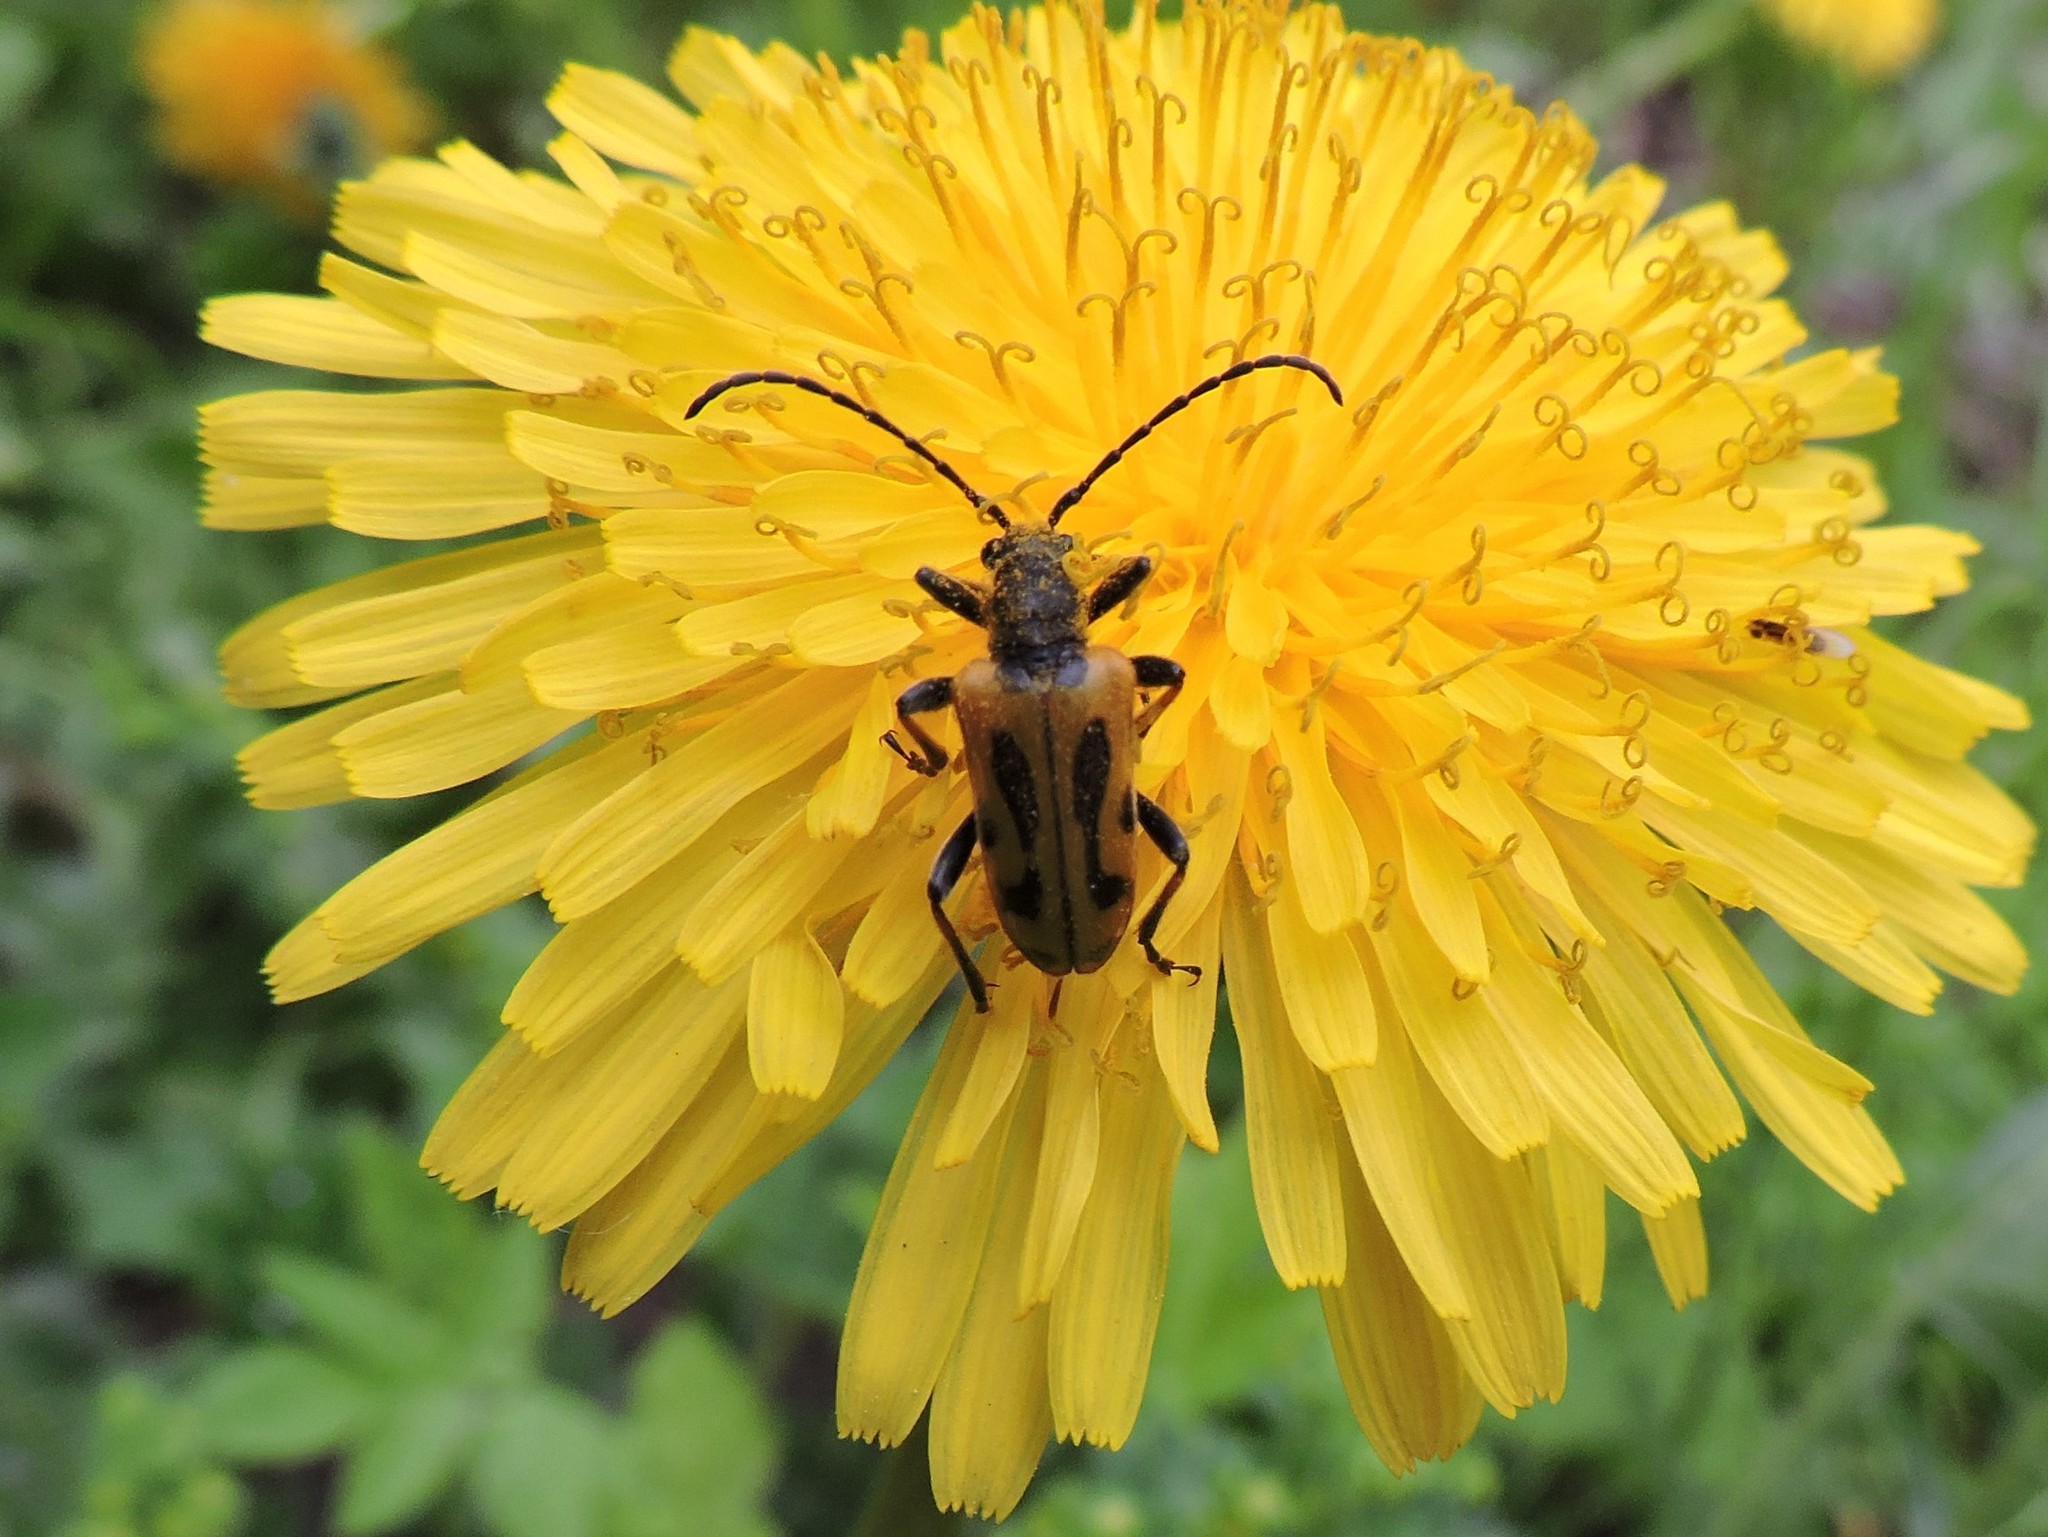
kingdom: Plantae
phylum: Tracheophyta
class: Magnoliopsida
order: Asterales
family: Asteraceae
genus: Taraxacum
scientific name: Taraxacum officinale
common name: Common dandelion
